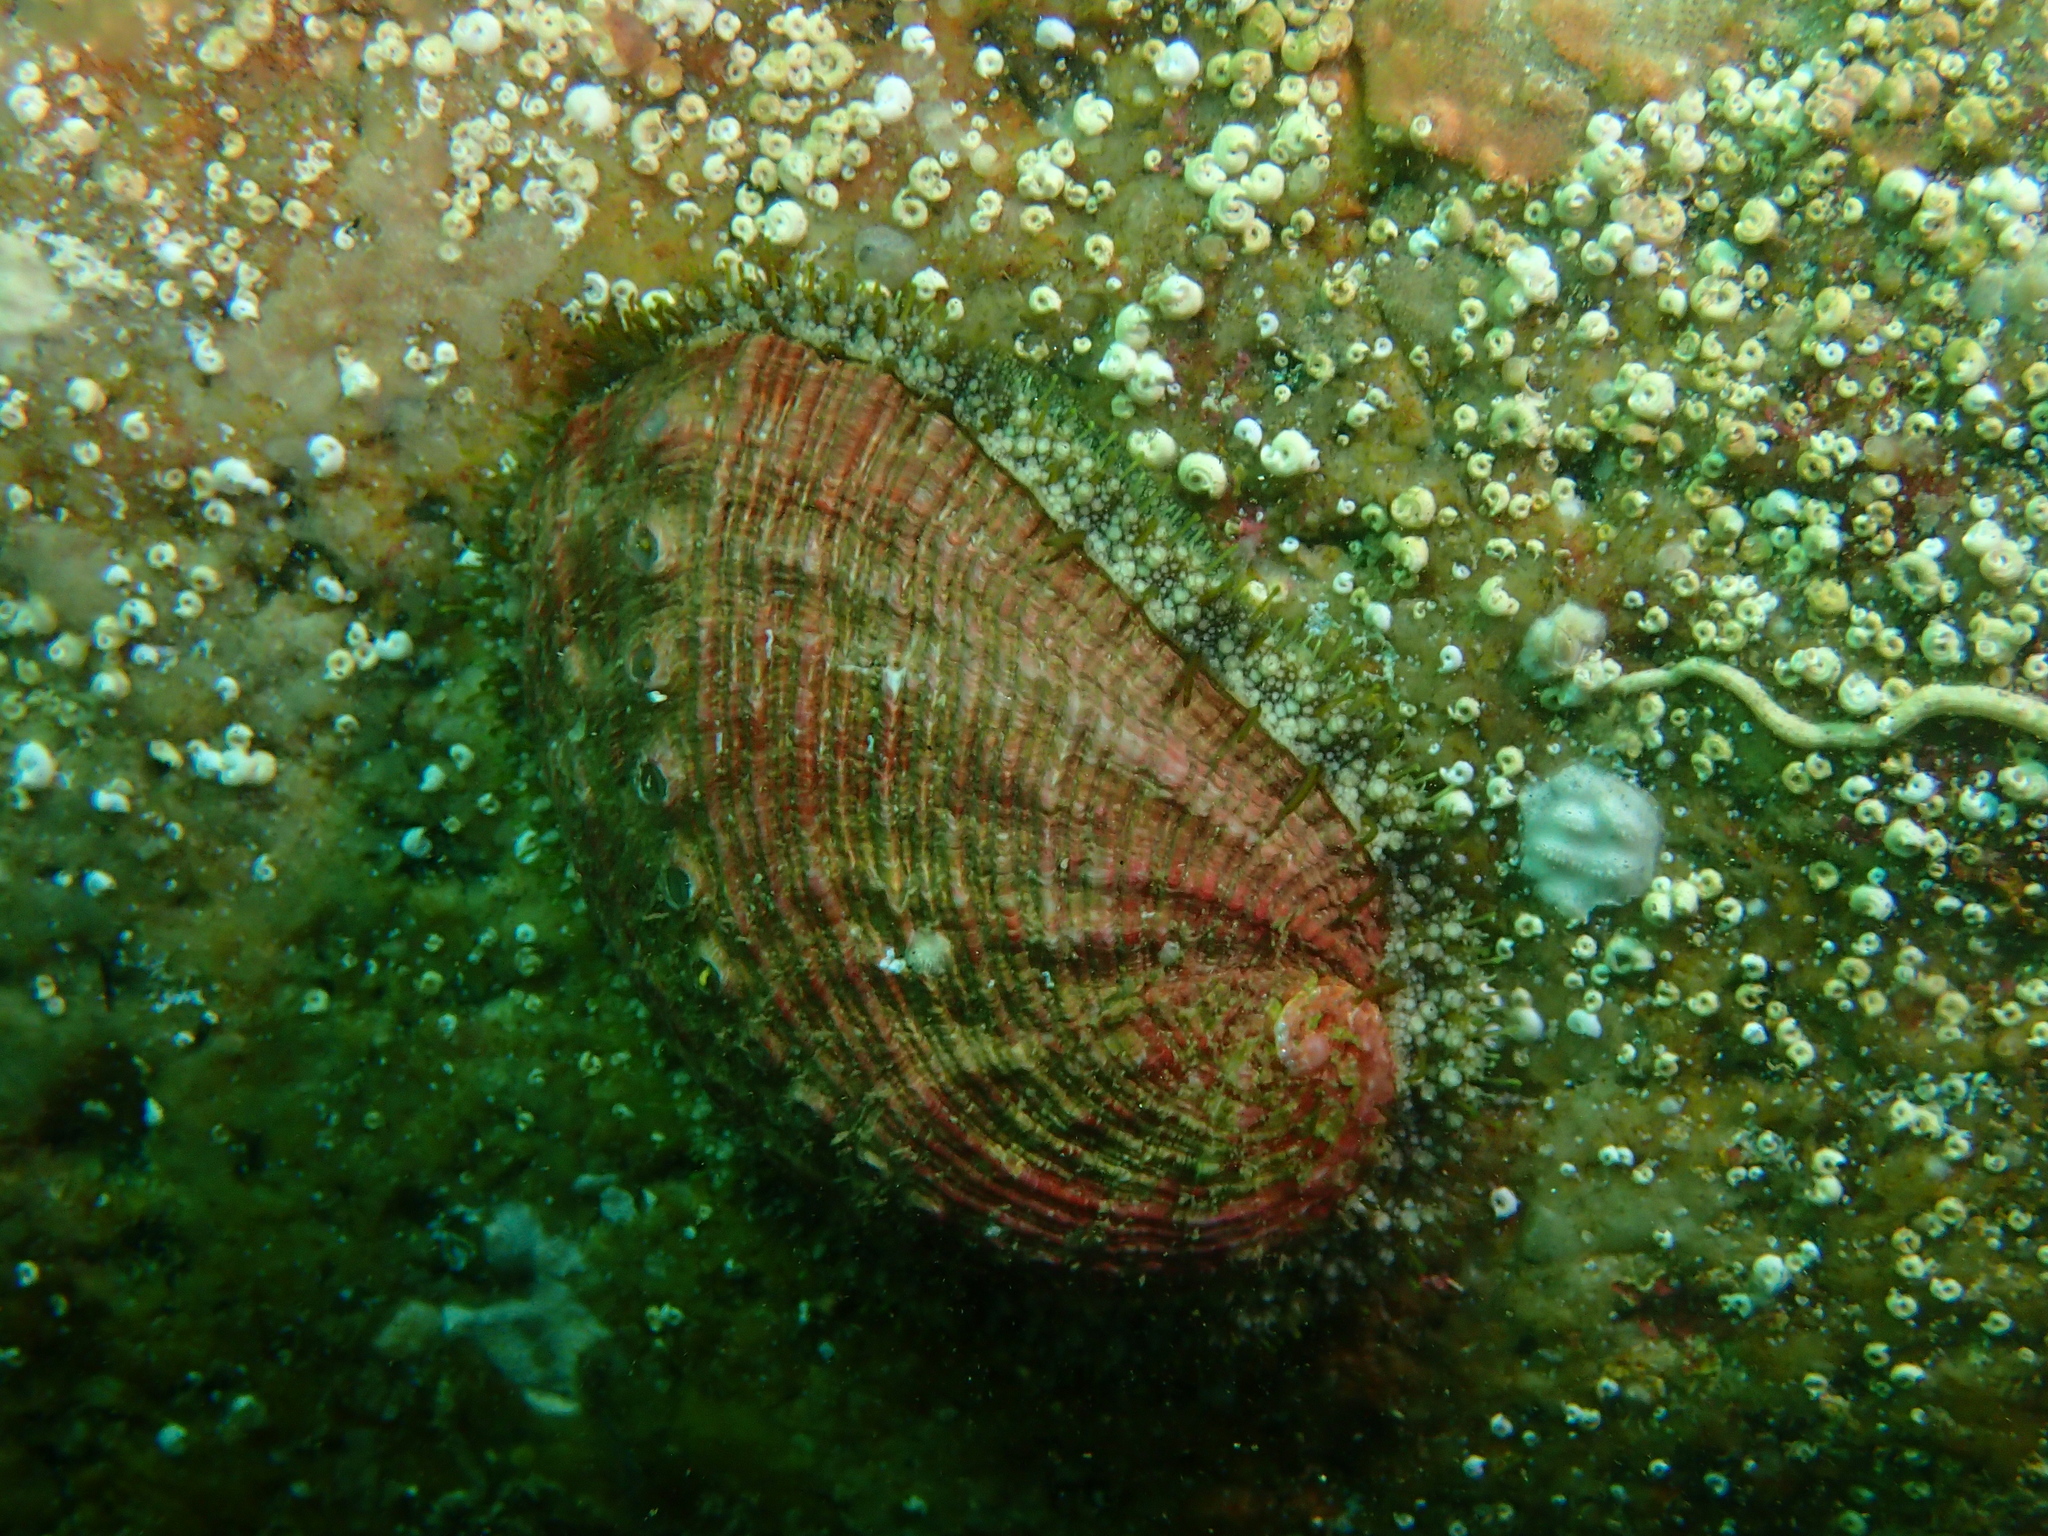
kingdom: Animalia
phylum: Mollusca
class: Gastropoda
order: Lepetellida
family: Haliotidae
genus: Haliotis
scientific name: Haliotis tuberculata
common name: Green ormer
